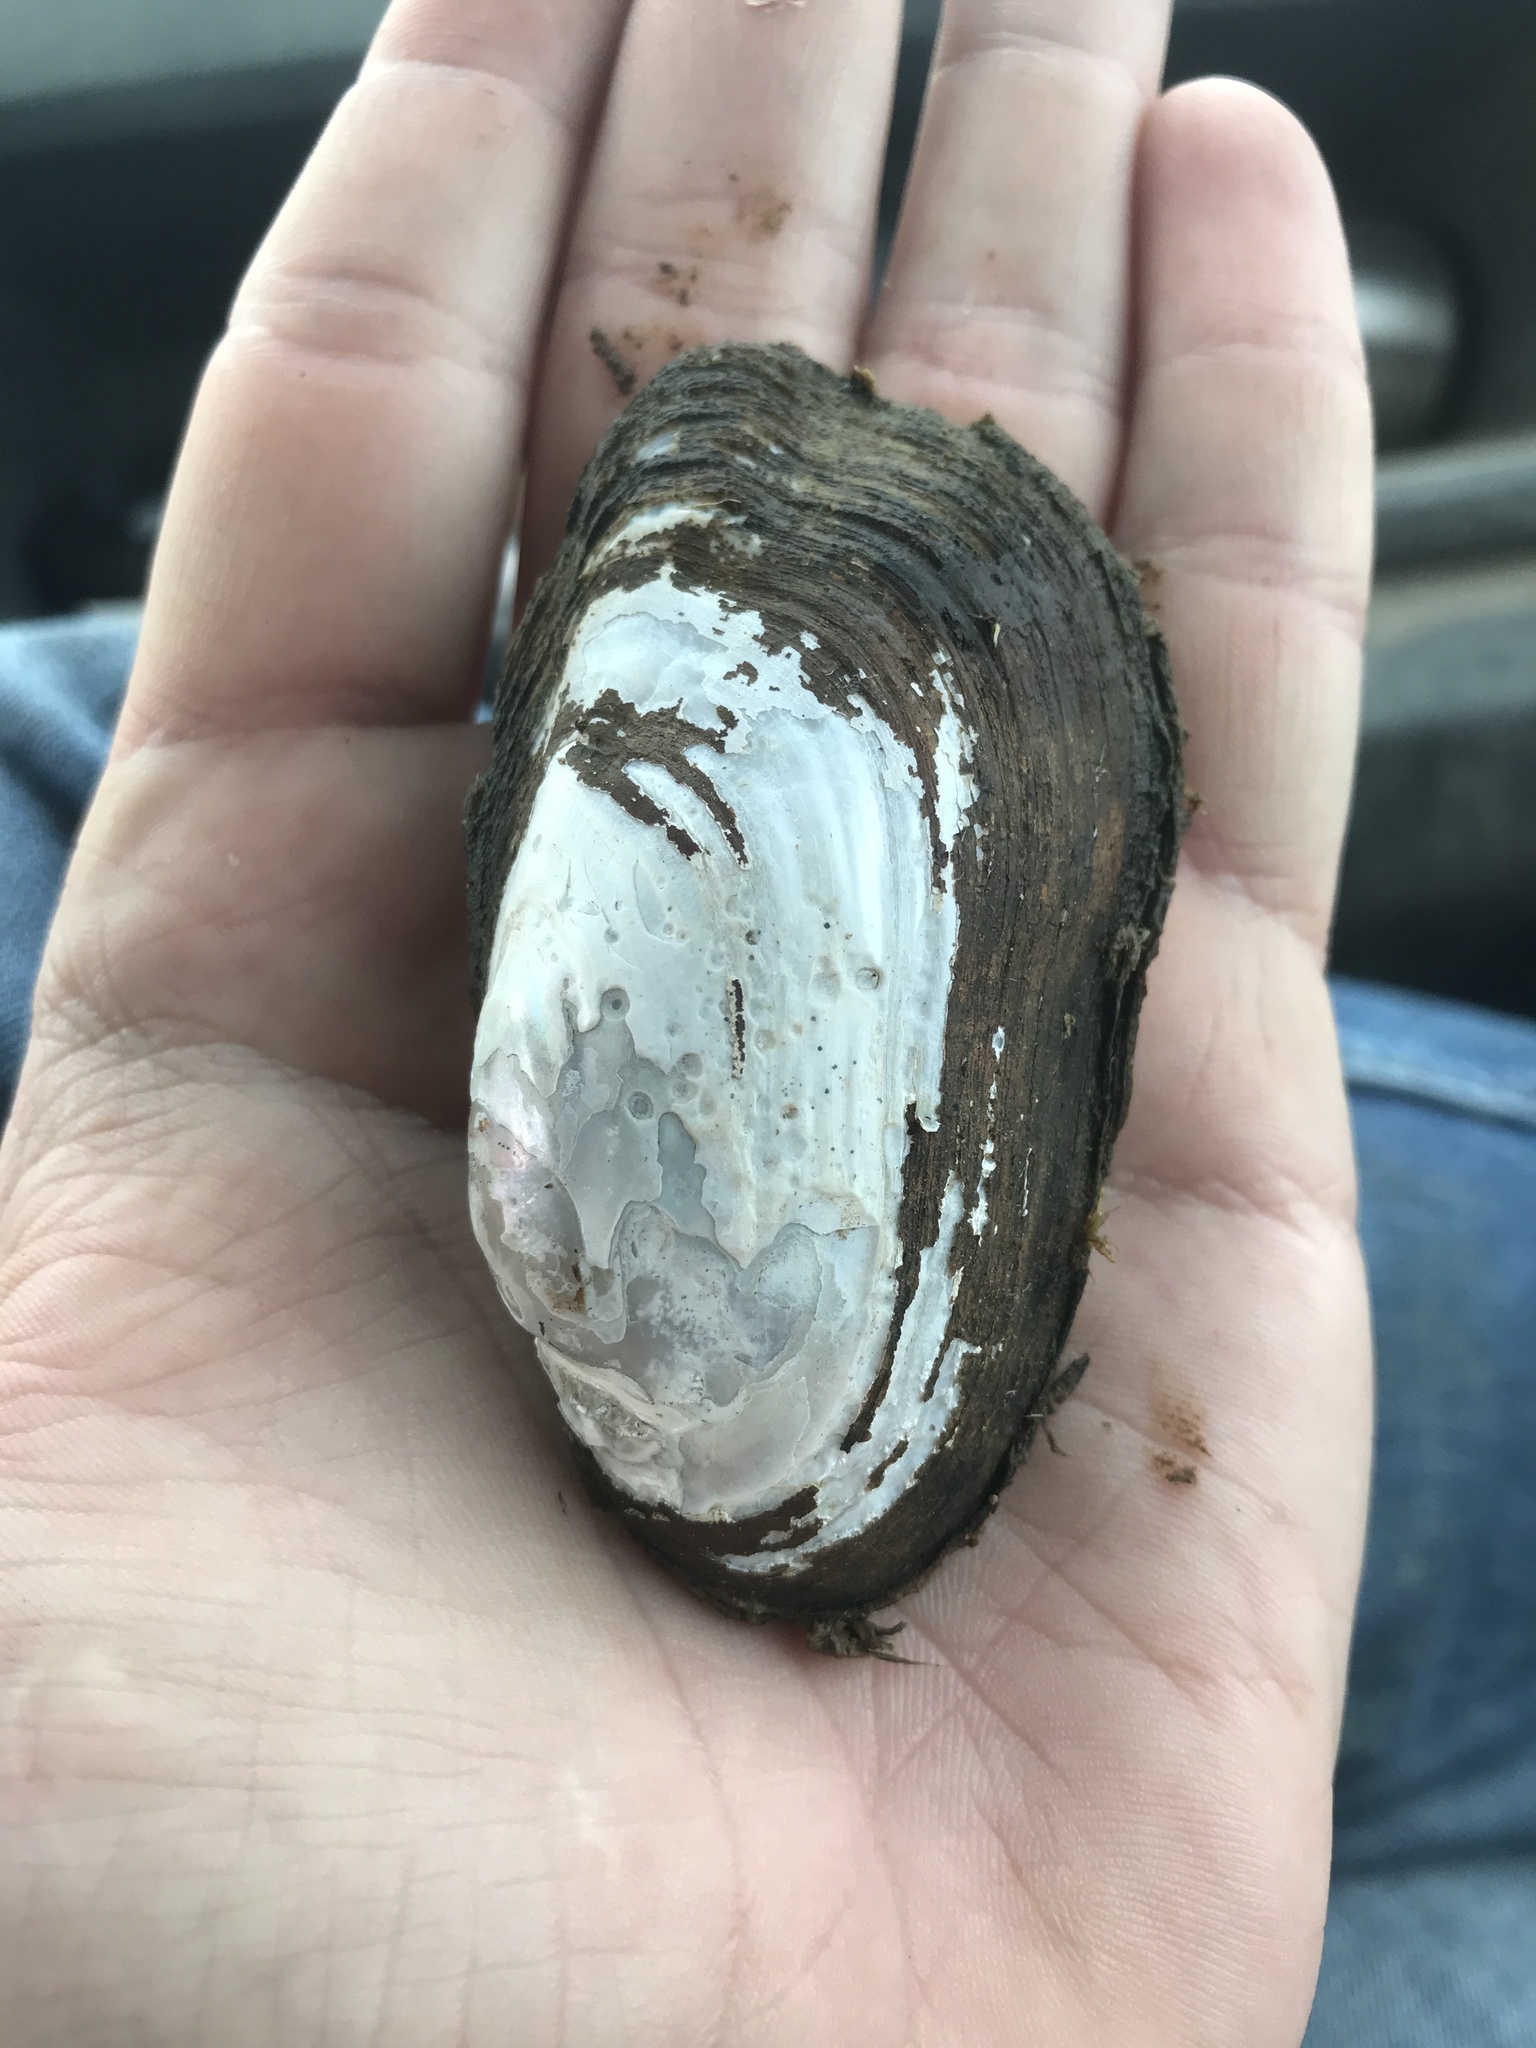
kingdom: Animalia
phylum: Mollusca
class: Bivalvia
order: Unionida
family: Unionidae
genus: Sagittunio
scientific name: Sagittunio subrostratus
